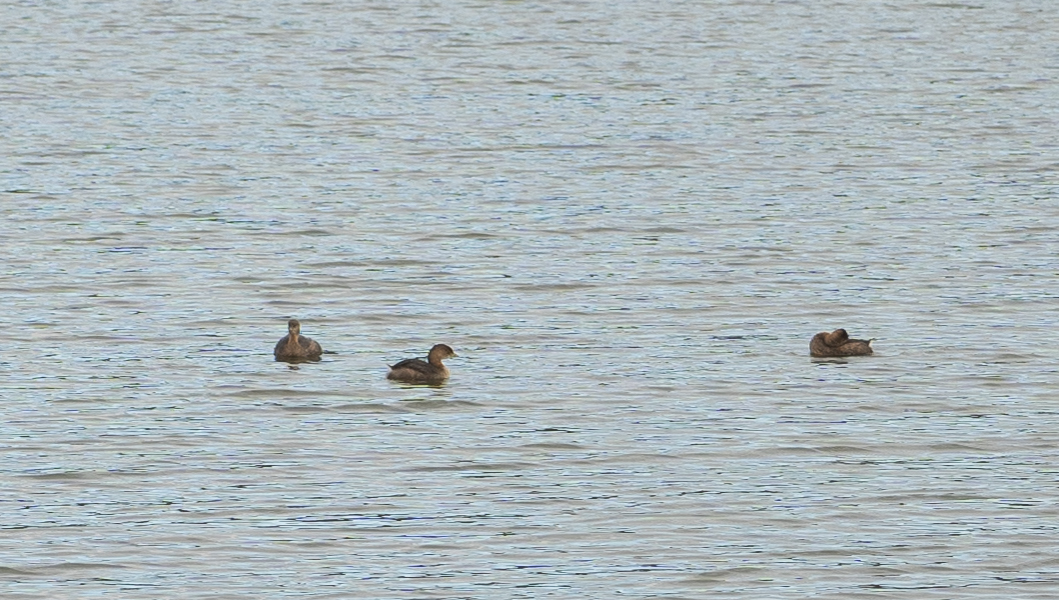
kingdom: Animalia
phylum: Chordata
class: Aves
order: Podicipediformes
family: Podicipedidae
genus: Podilymbus
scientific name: Podilymbus podiceps
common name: Pied-billed grebe
